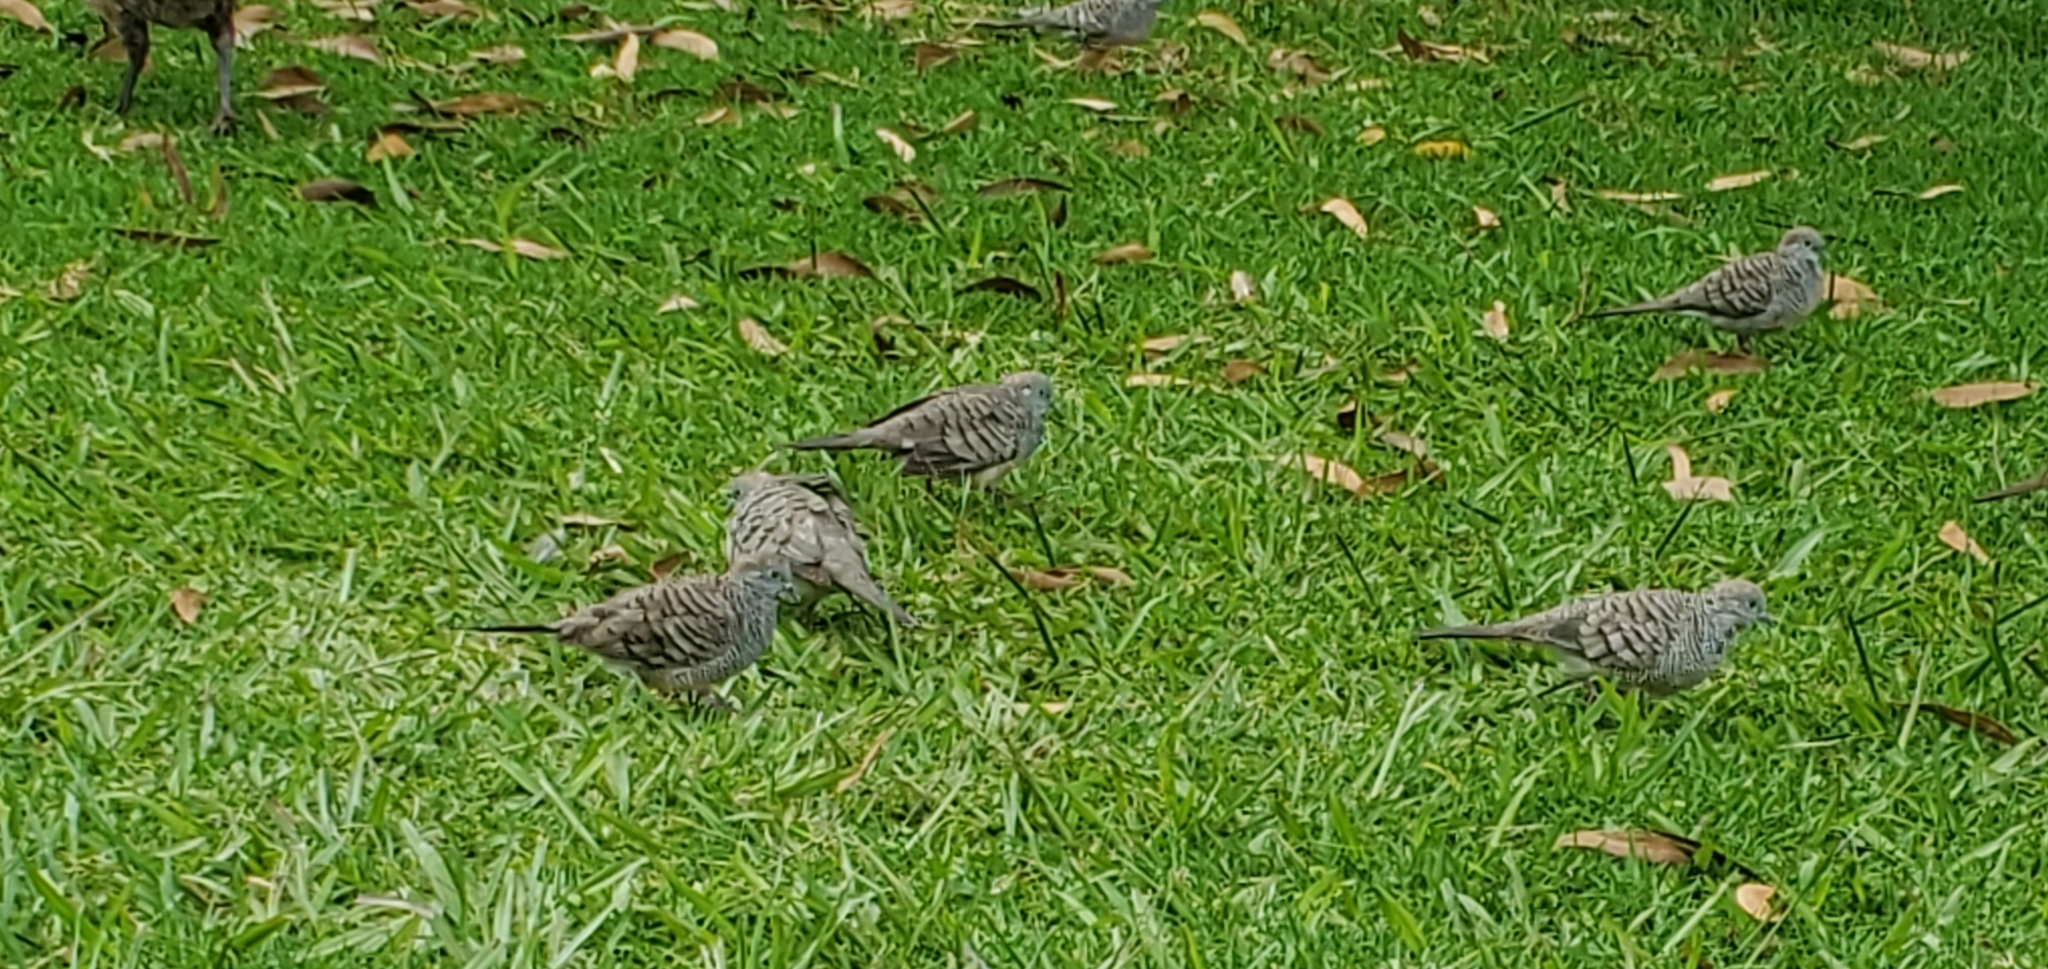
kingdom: Animalia
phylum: Chordata
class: Aves
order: Columbiformes
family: Columbidae
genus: Geopelia
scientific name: Geopelia striata
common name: Zebra dove
